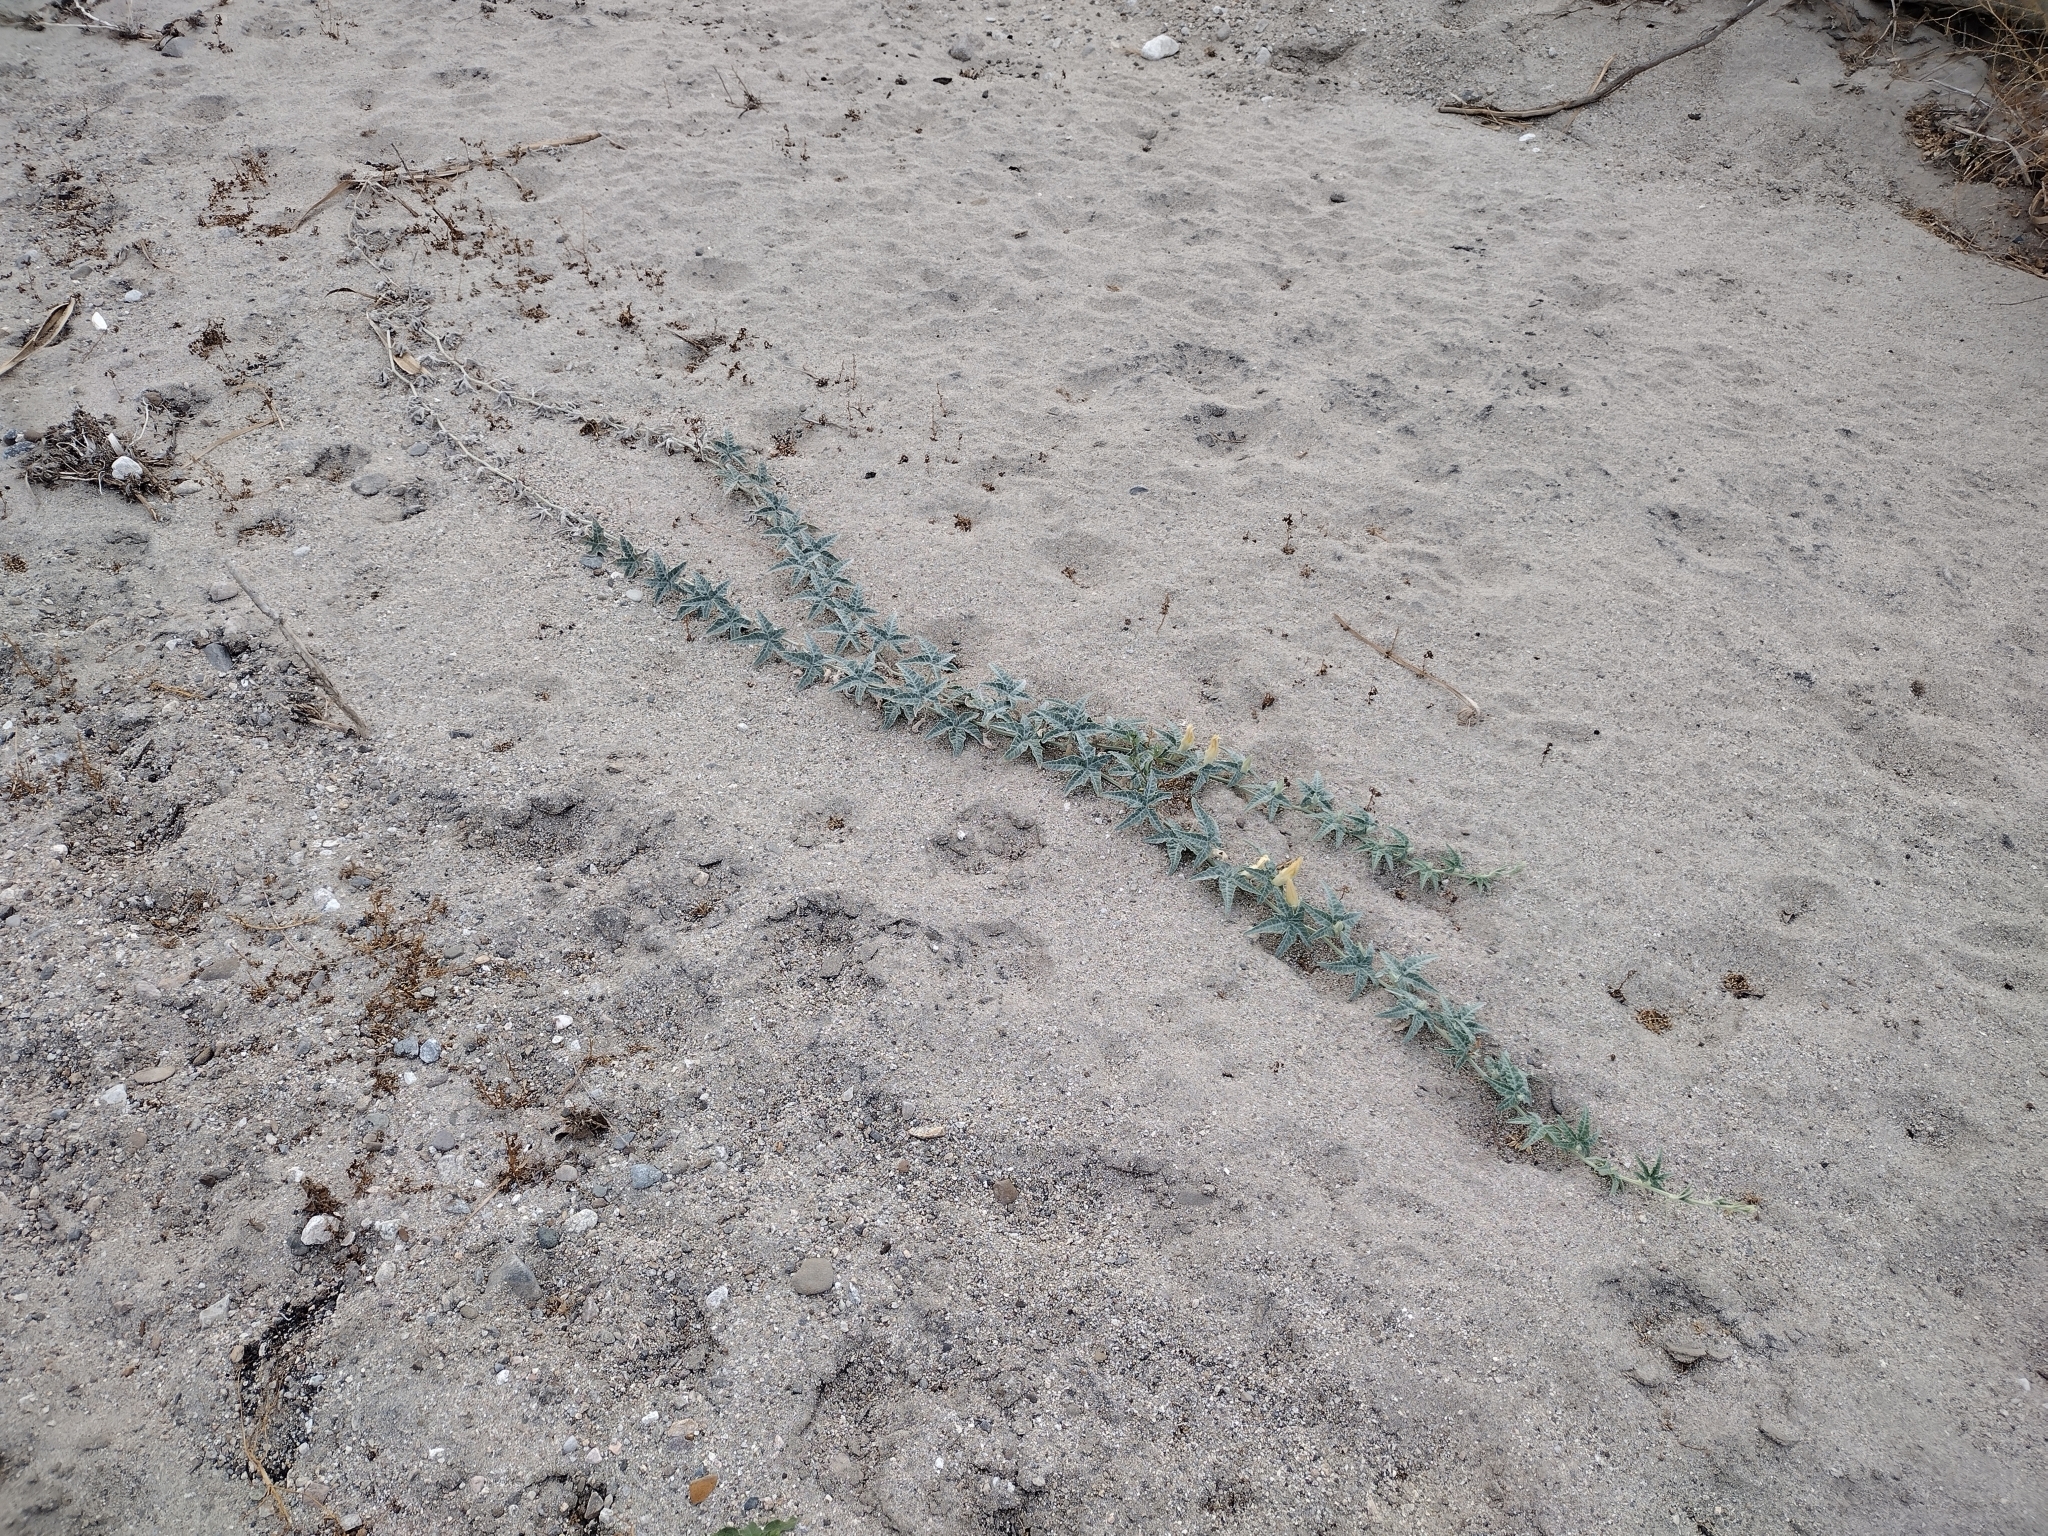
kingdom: Plantae
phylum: Tracheophyta
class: Magnoliopsida
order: Cucurbitales
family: Cucurbitaceae
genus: Cucurbita
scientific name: Cucurbita palmata
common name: Coyote-melon
